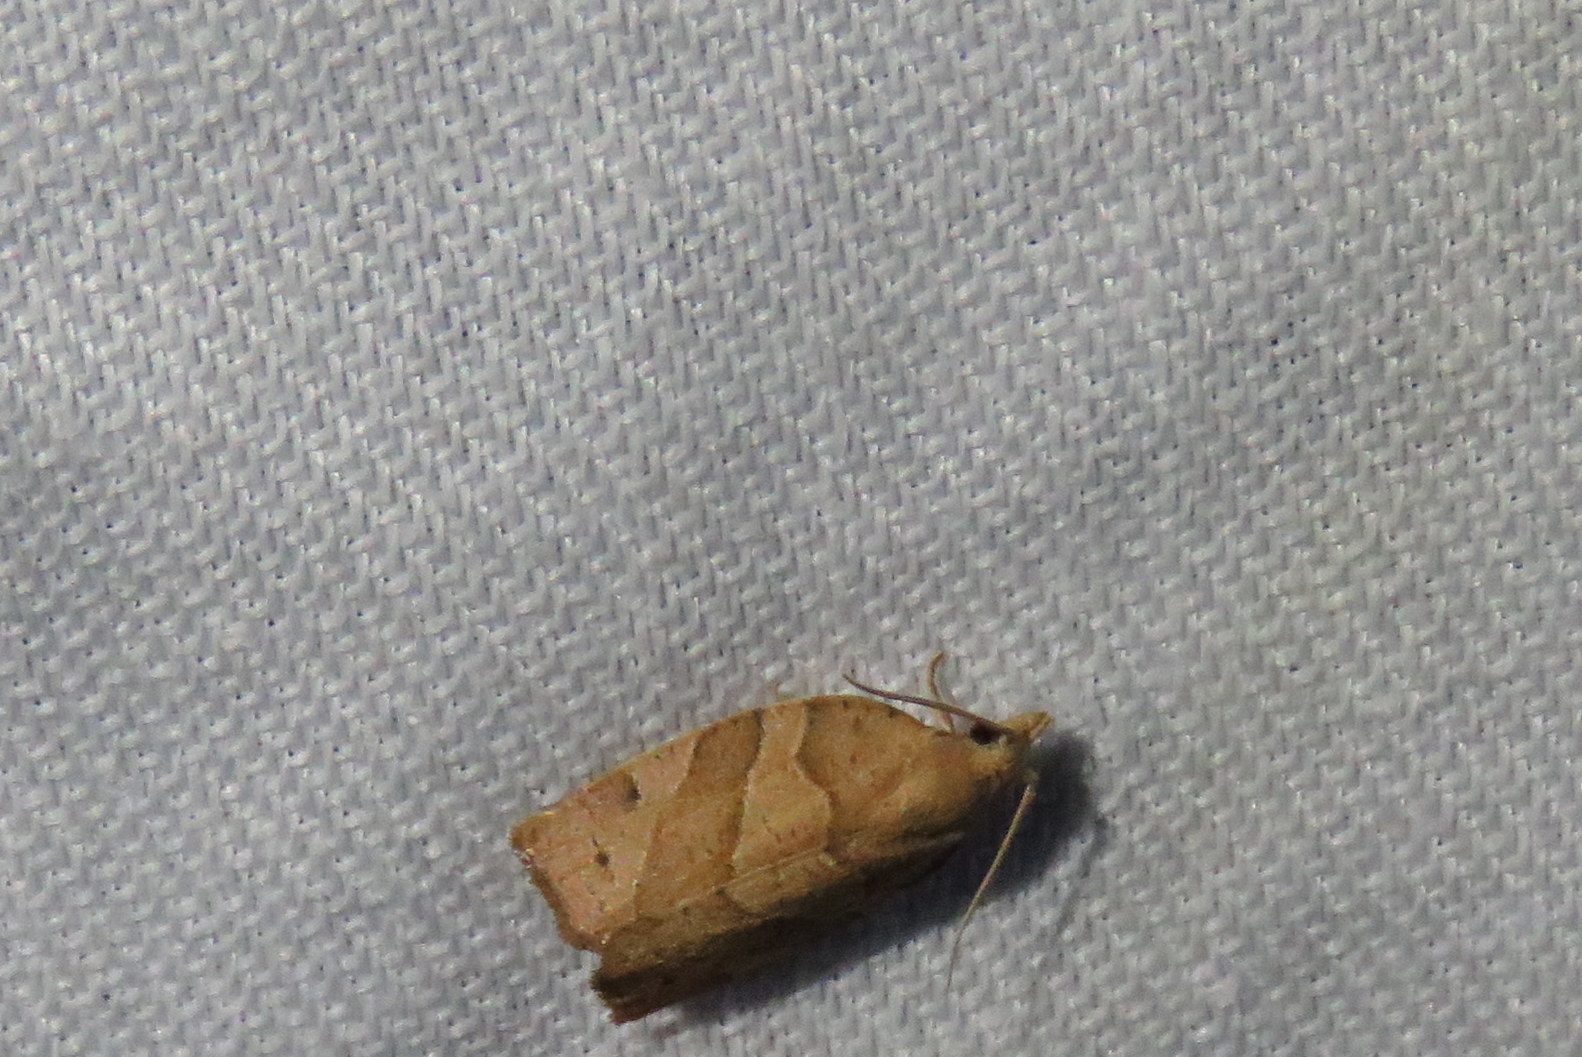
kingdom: Animalia
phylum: Arthropoda
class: Insecta
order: Lepidoptera
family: Tortricidae
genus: Pandemis
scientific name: Pandemis limitata
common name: Three-lined leafroller moth
